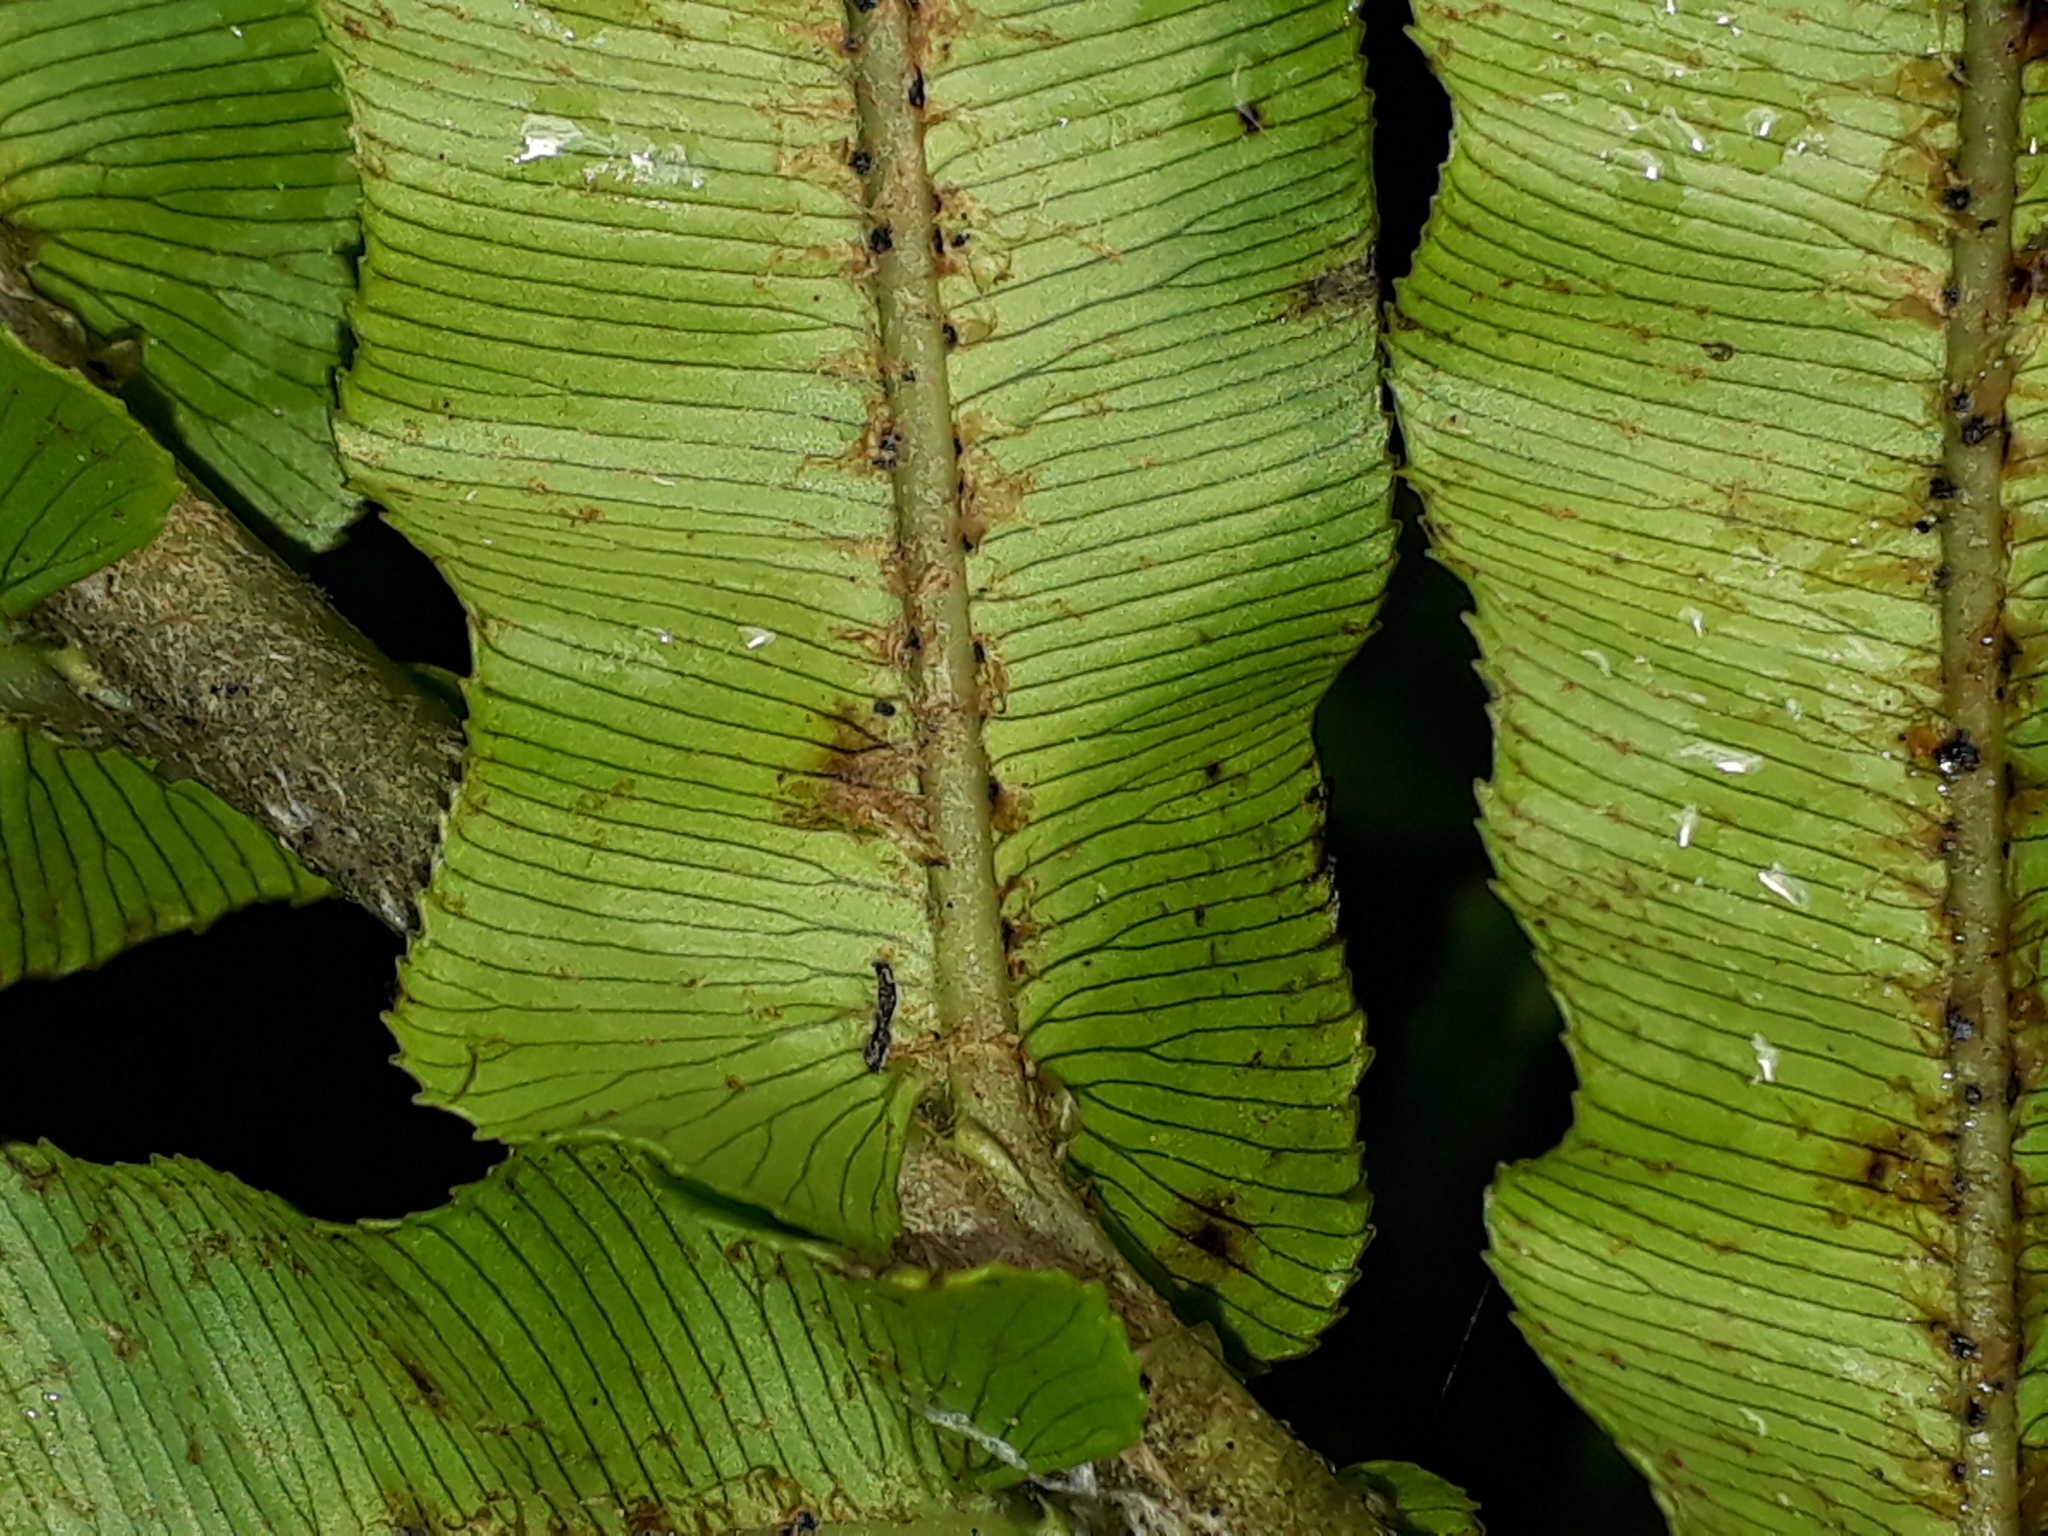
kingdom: Plantae
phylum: Tracheophyta
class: Polypodiopsida
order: Polypodiales
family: Blechnaceae
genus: Parablechnum
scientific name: Parablechnum novae-zelandiae
